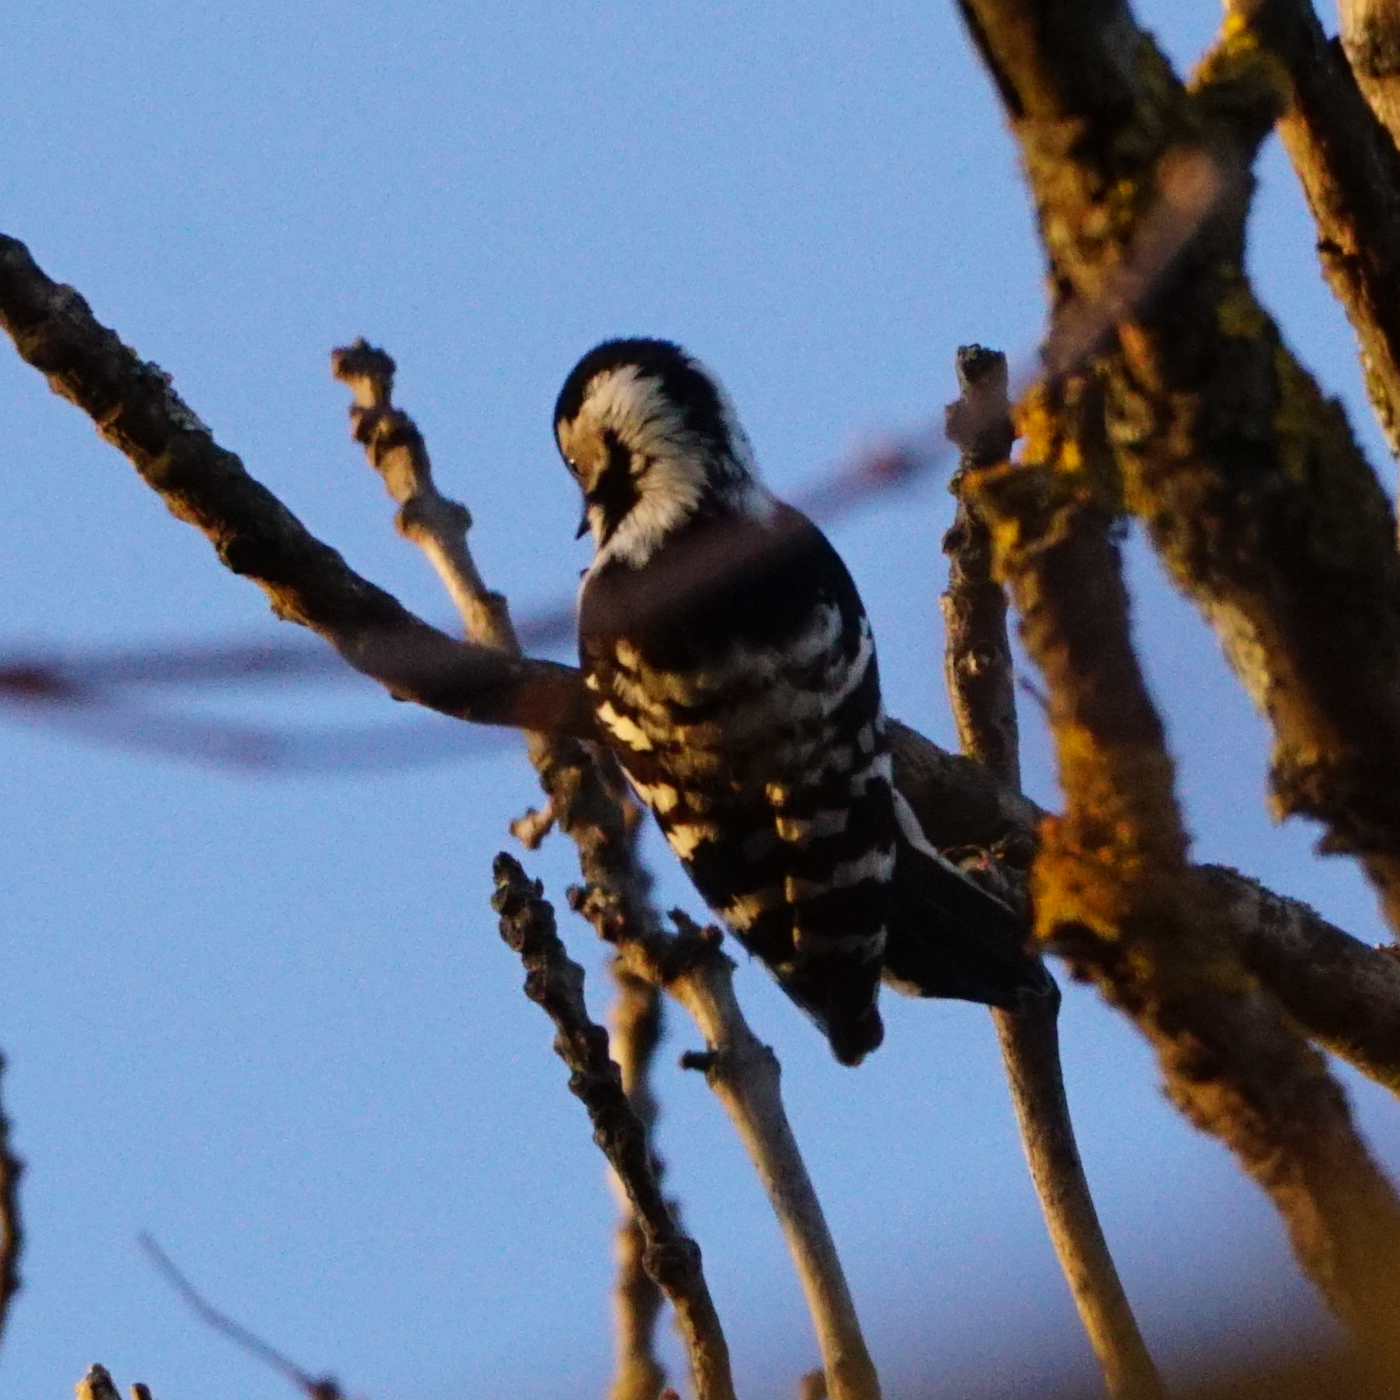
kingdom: Animalia
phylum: Chordata
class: Aves
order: Piciformes
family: Picidae
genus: Dryobates
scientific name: Dryobates minor
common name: Lesser spotted woodpecker
